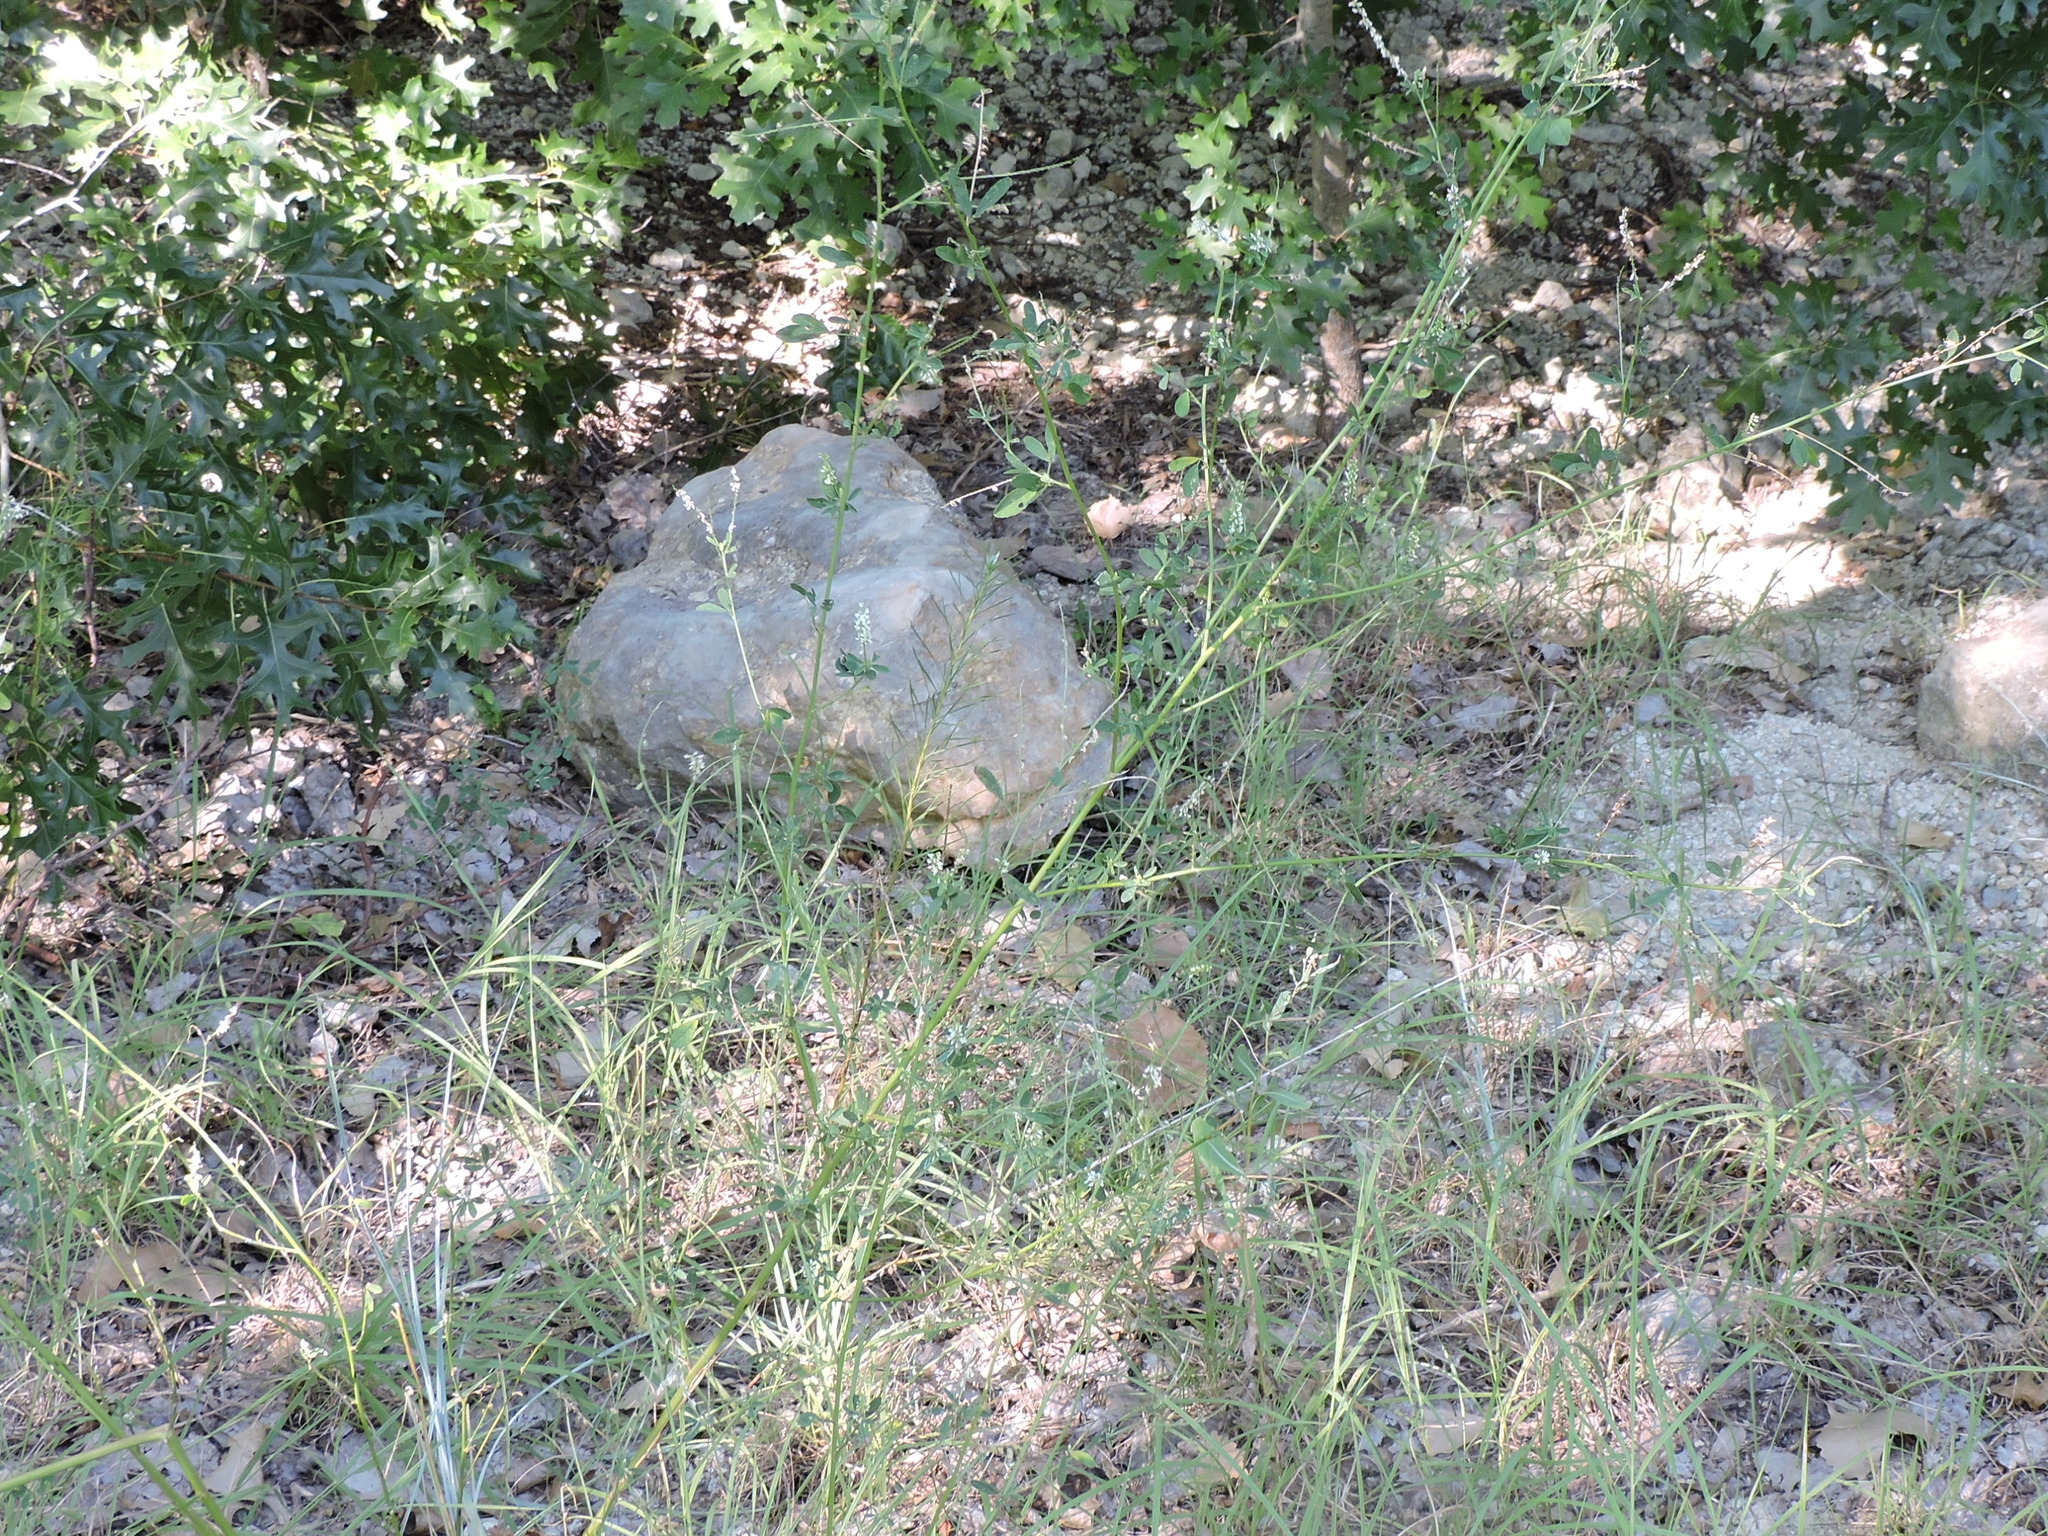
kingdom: Plantae
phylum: Tracheophyta
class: Magnoliopsida
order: Fabales
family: Fabaceae
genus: Melilotus
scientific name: Melilotus albus
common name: White melilot
